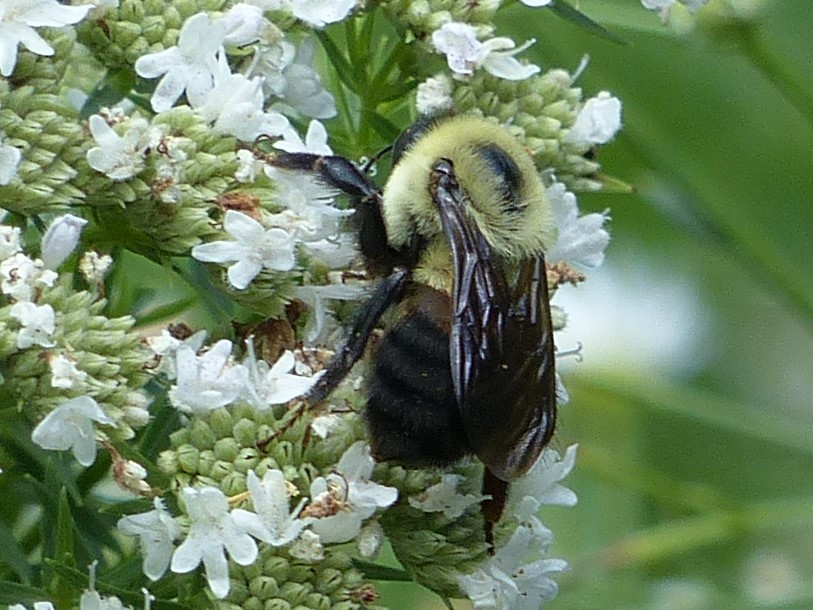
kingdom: Animalia
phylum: Arthropoda
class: Insecta
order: Hymenoptera
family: Apidae
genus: Bombus
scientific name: Bombus griseocollis
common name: Brown-belted bumble bee
